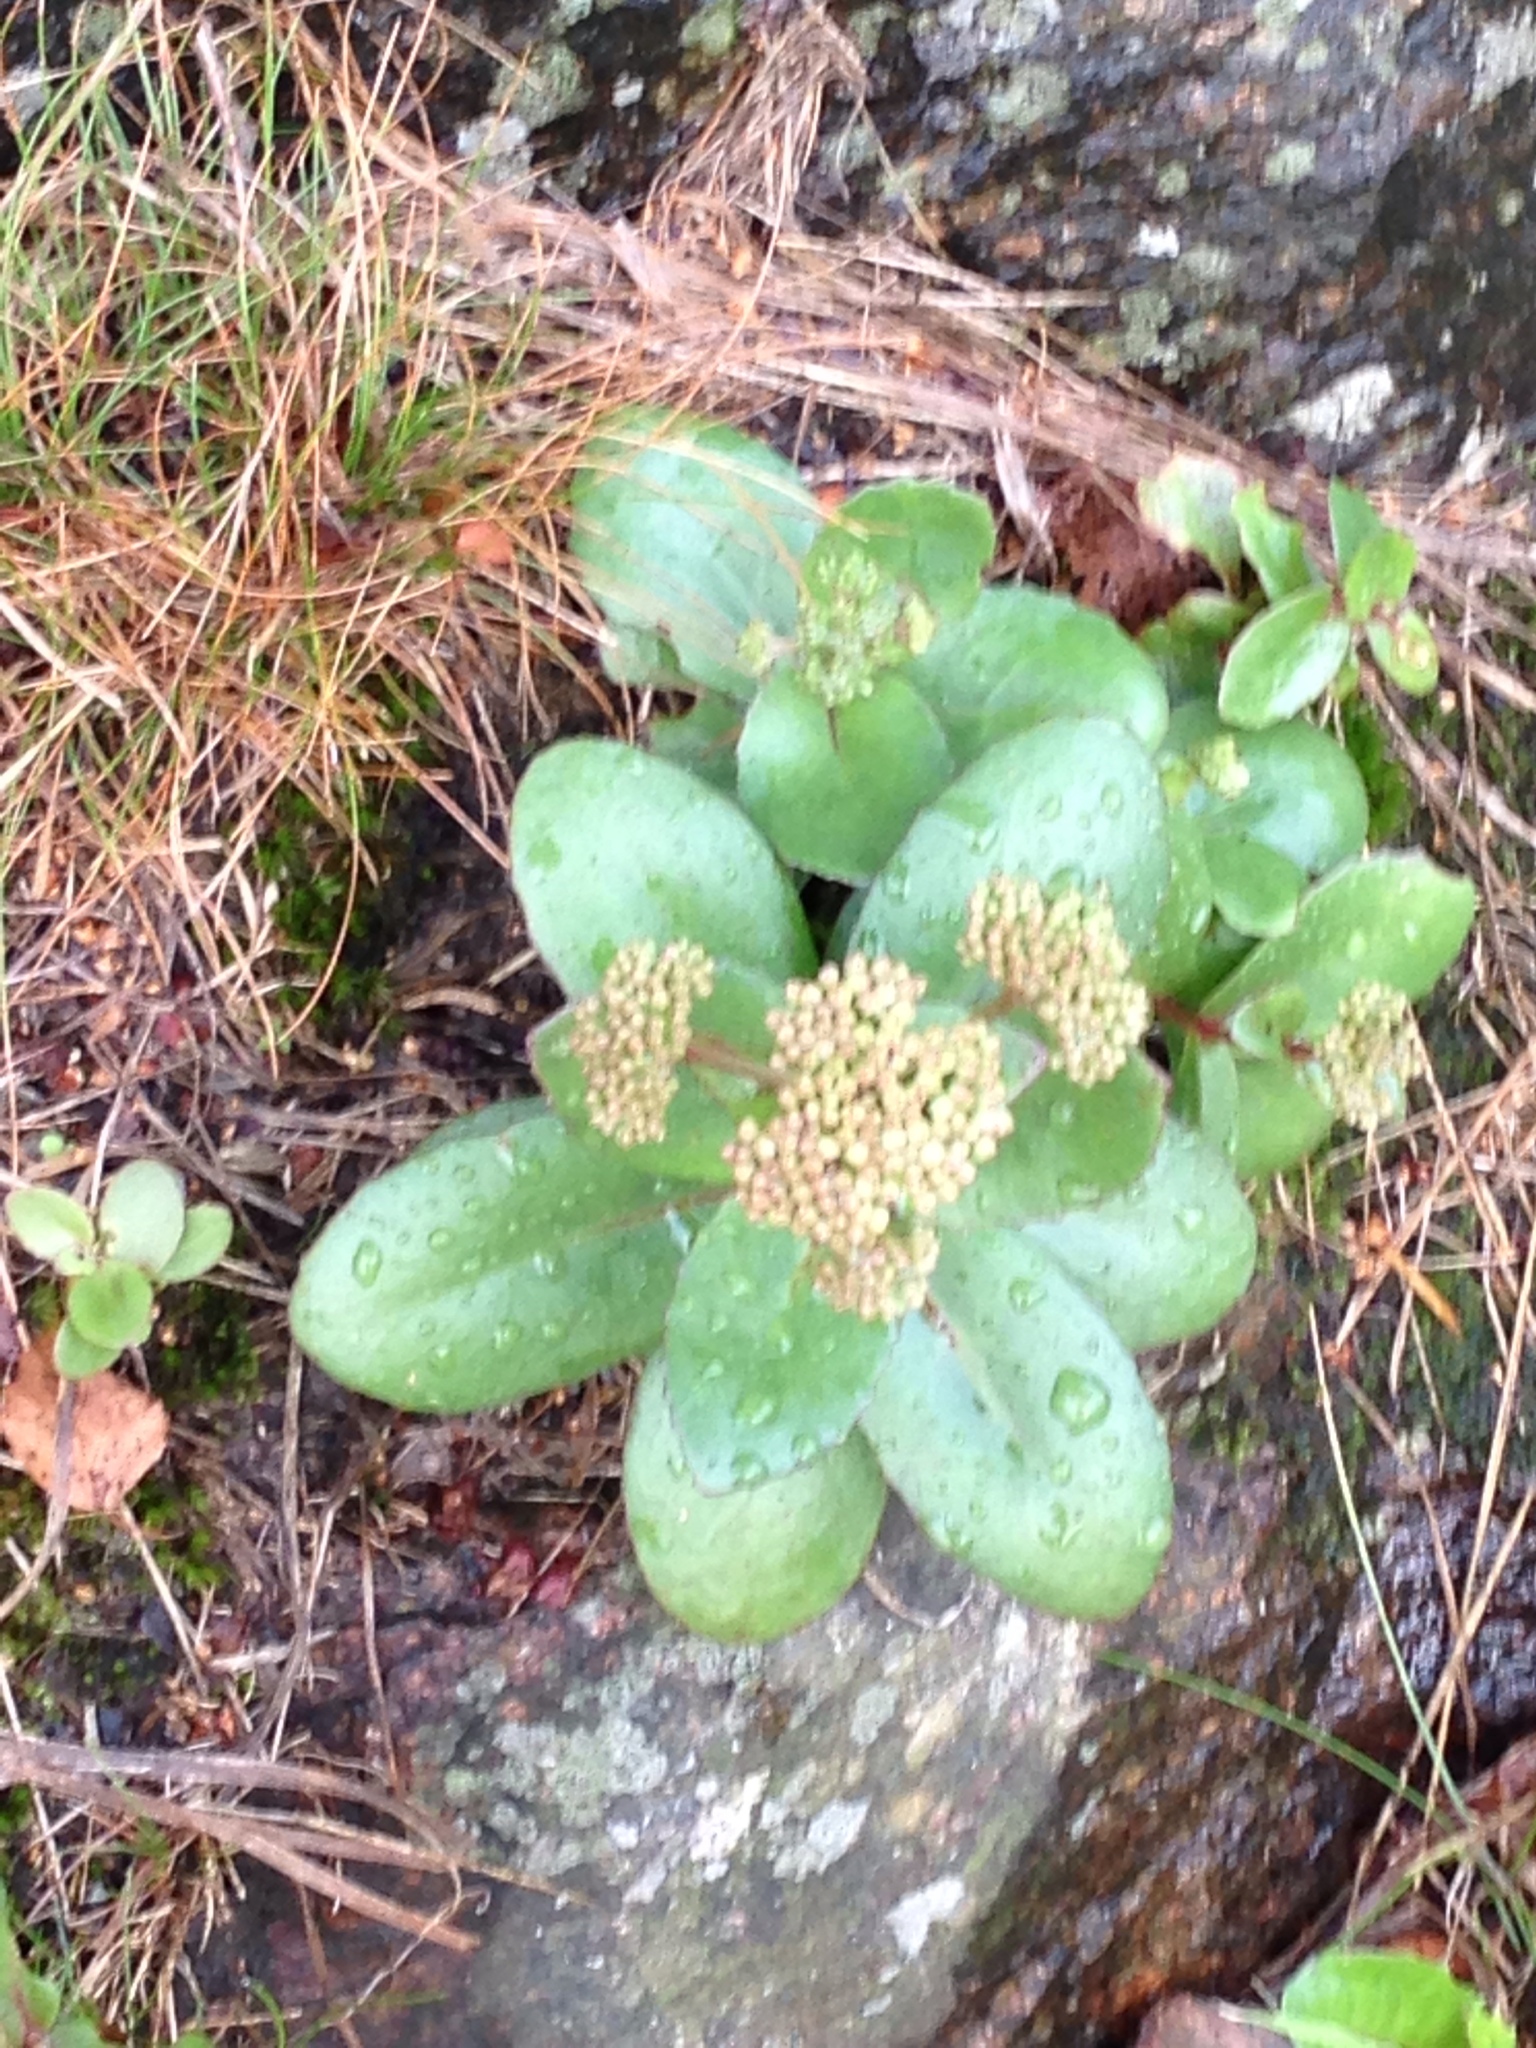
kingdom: Plantae
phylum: Tracheophyta
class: Magnoliopsida
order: Saxifragales
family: Crassulaceae
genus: Hylotelephium
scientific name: Hylotelephium maximum
